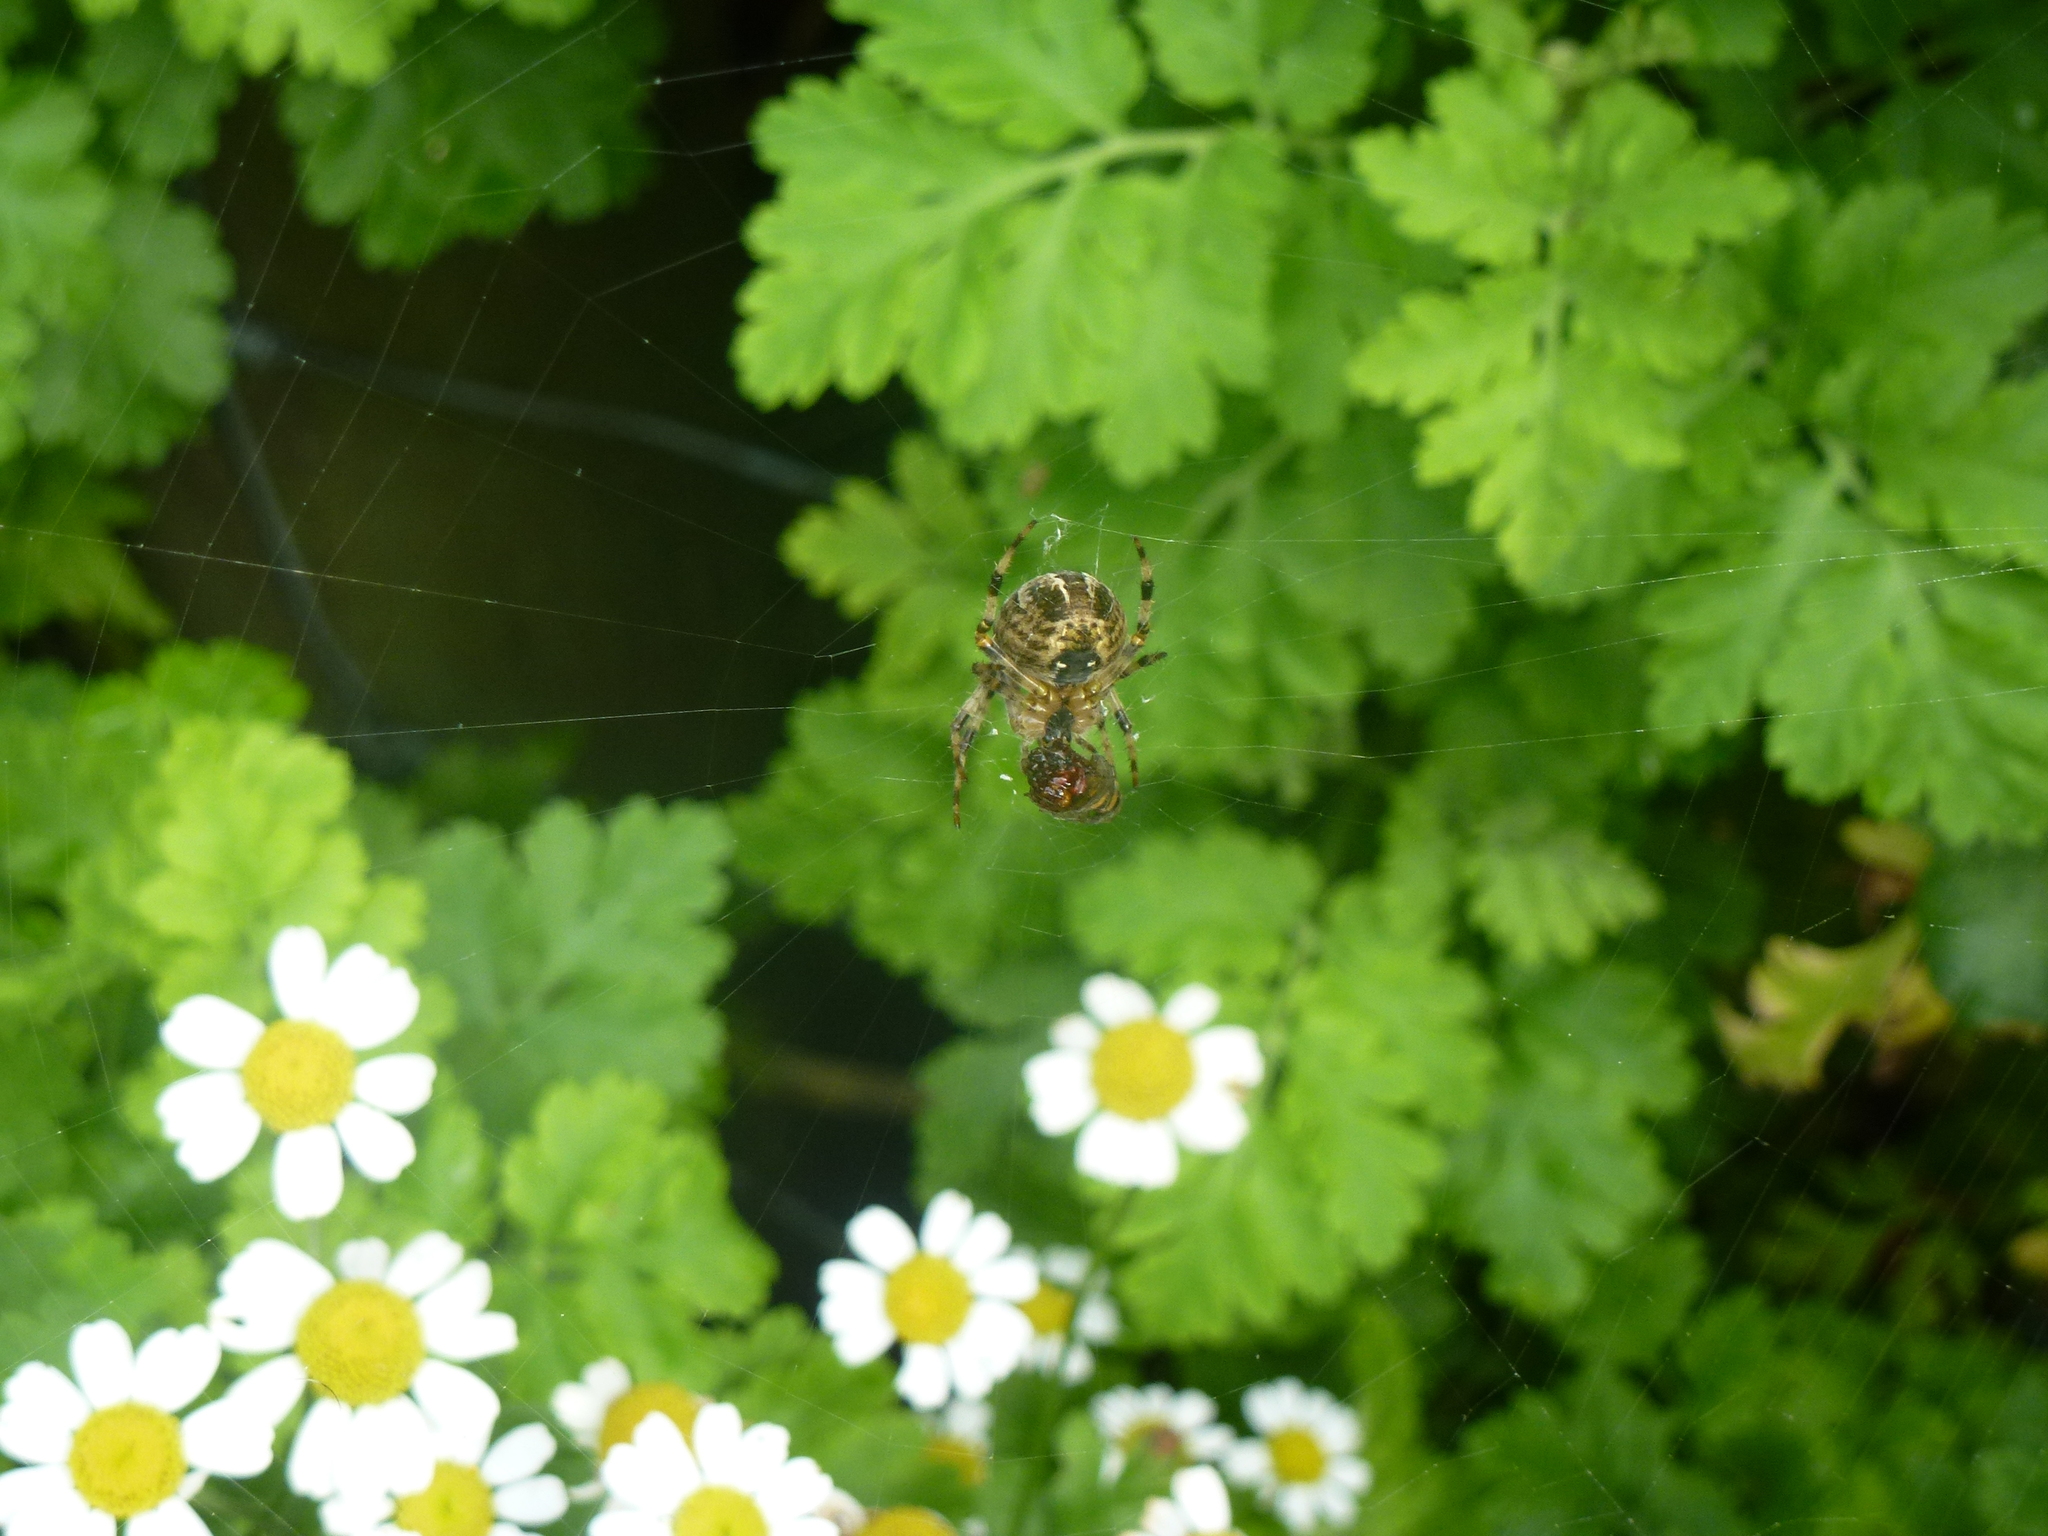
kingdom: Animalia
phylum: Arthropoda
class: Arachnida
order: Araneae
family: Araneidae
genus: Araneus
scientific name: Araneus diadematus
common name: Cross orbweaver
